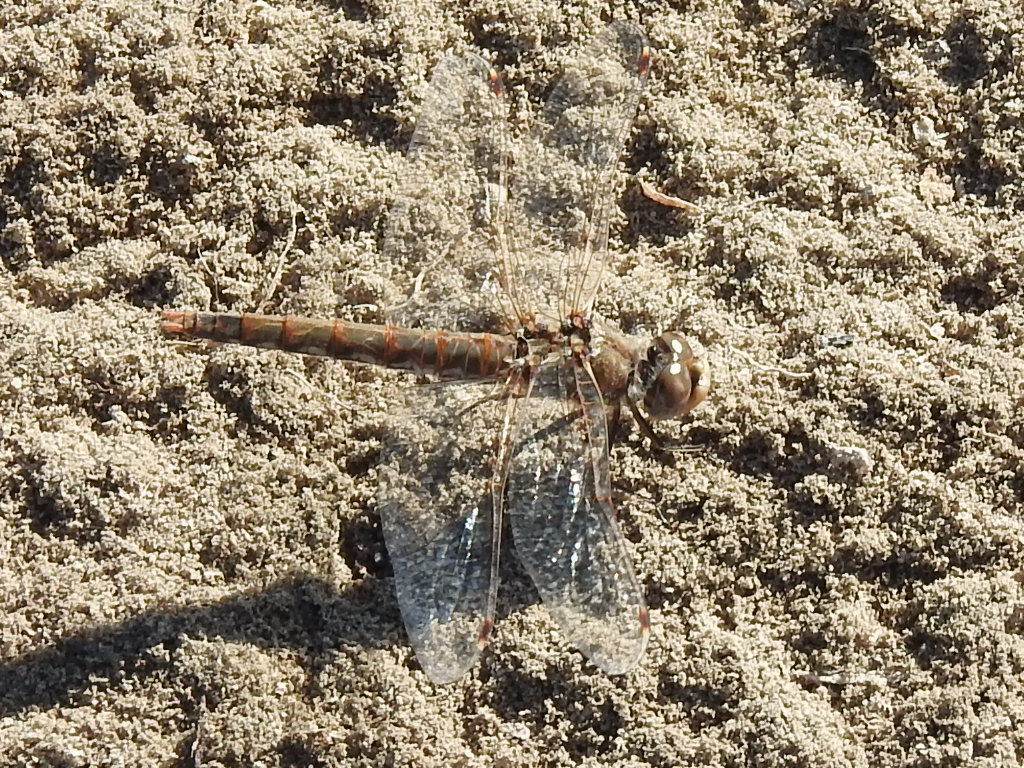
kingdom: Animalia
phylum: Arthropoda
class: Insecta
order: Odonata
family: Libellulidae
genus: Sympetrum
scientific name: Sympetrum corruptum
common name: Variegated meadowhawk
